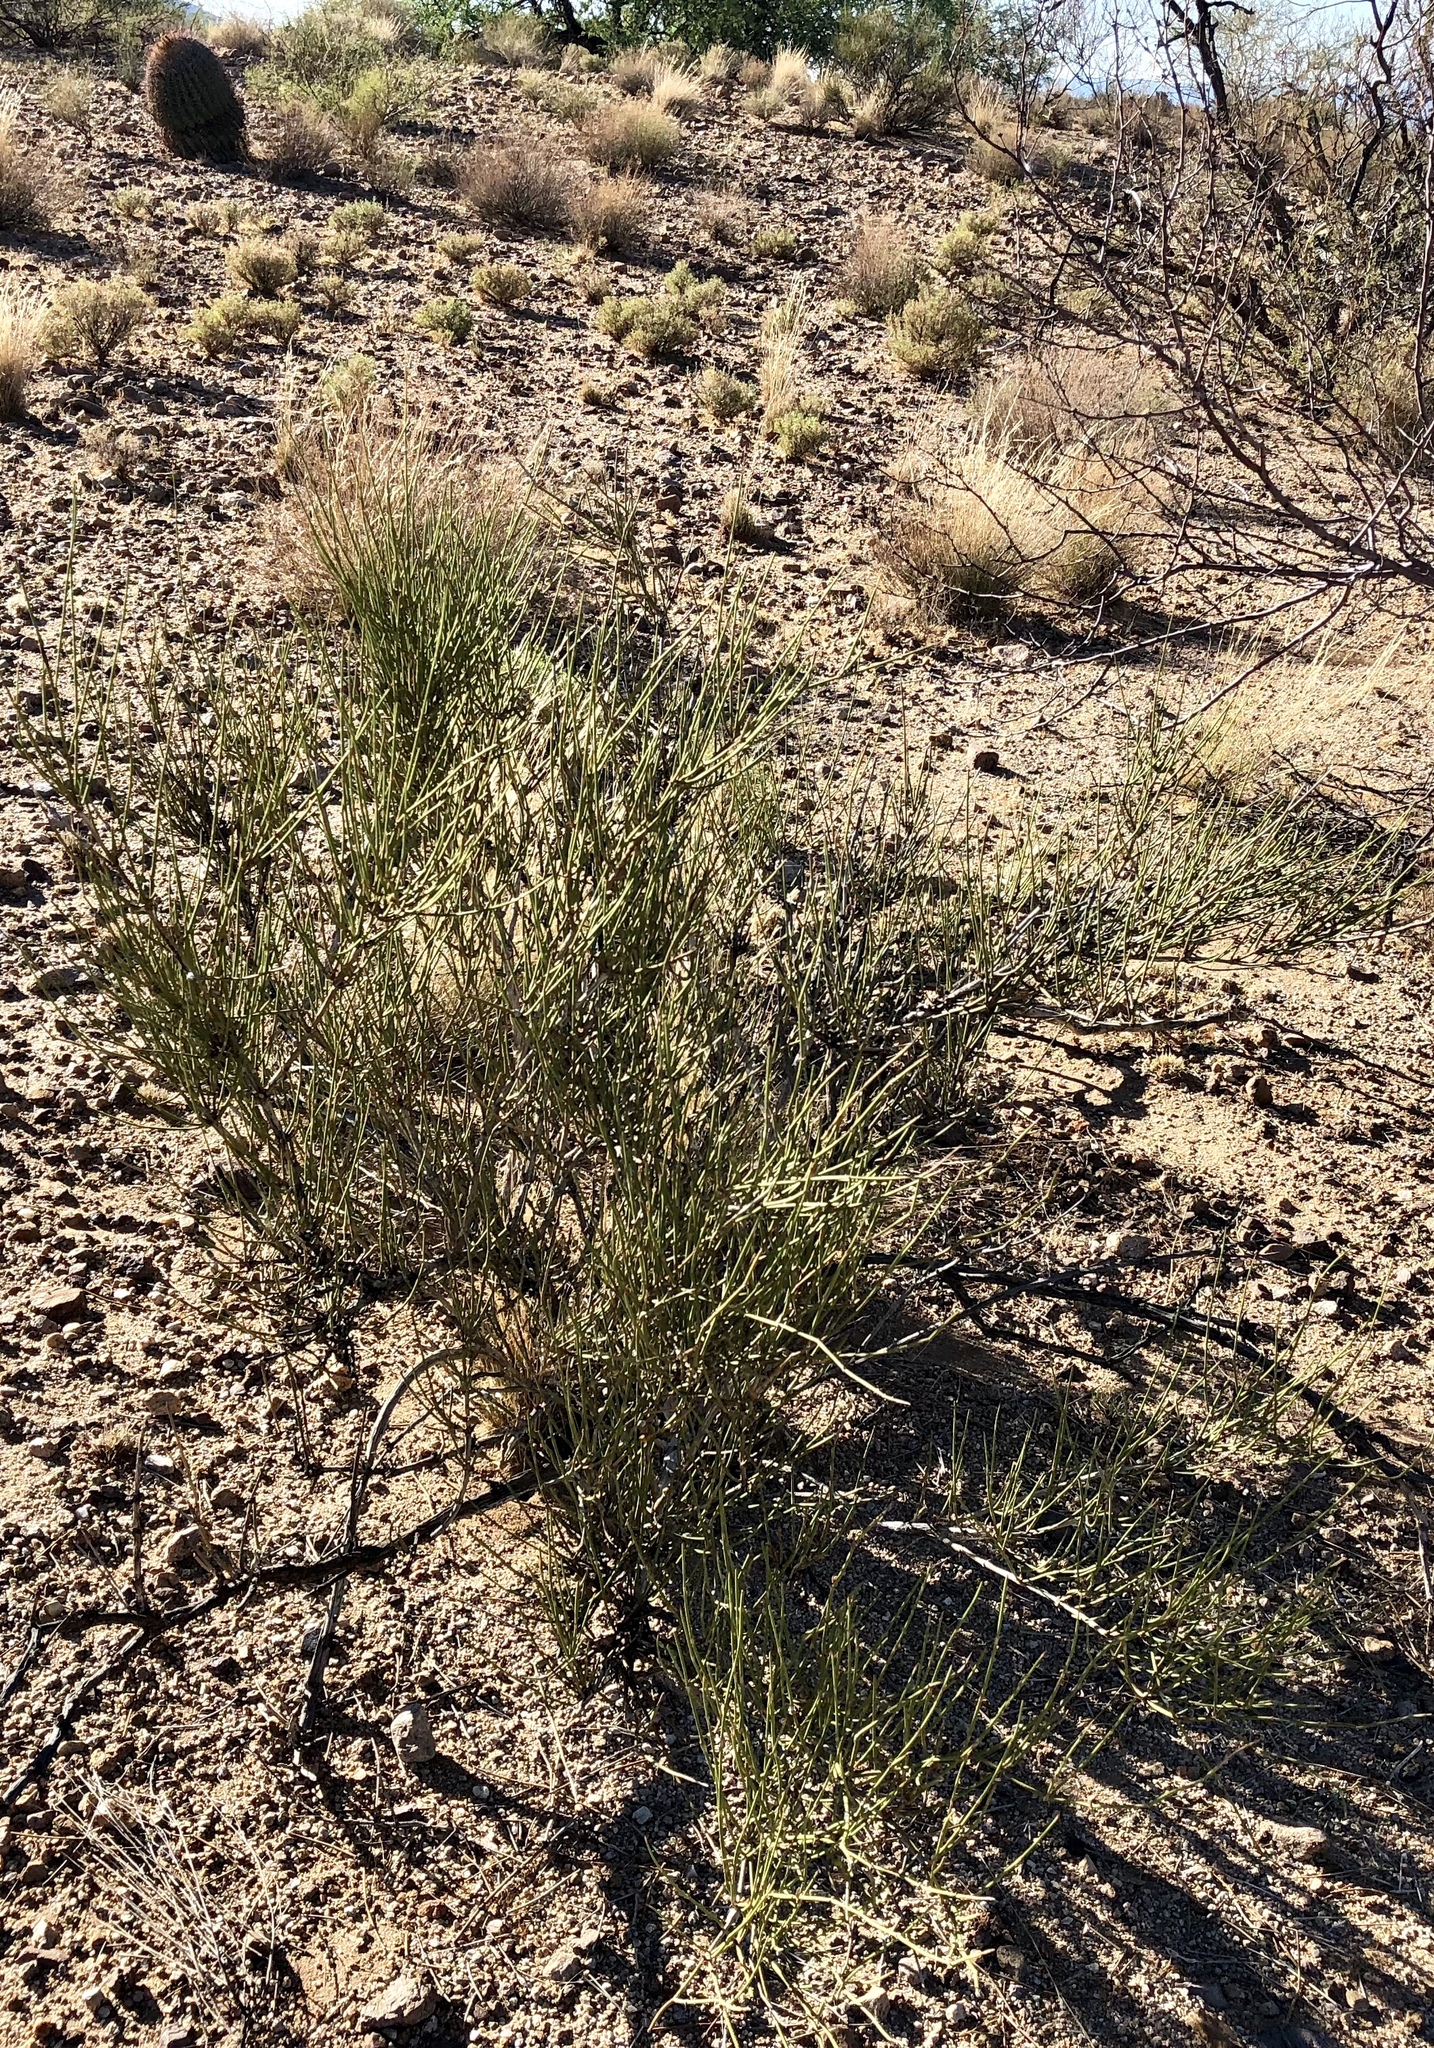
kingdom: Plantae
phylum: Tracheophyta
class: Gnetopsida
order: Ephedrales
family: Ephedraceae
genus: Ephedra
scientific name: Ephedra trifurca
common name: Mexican-tea
